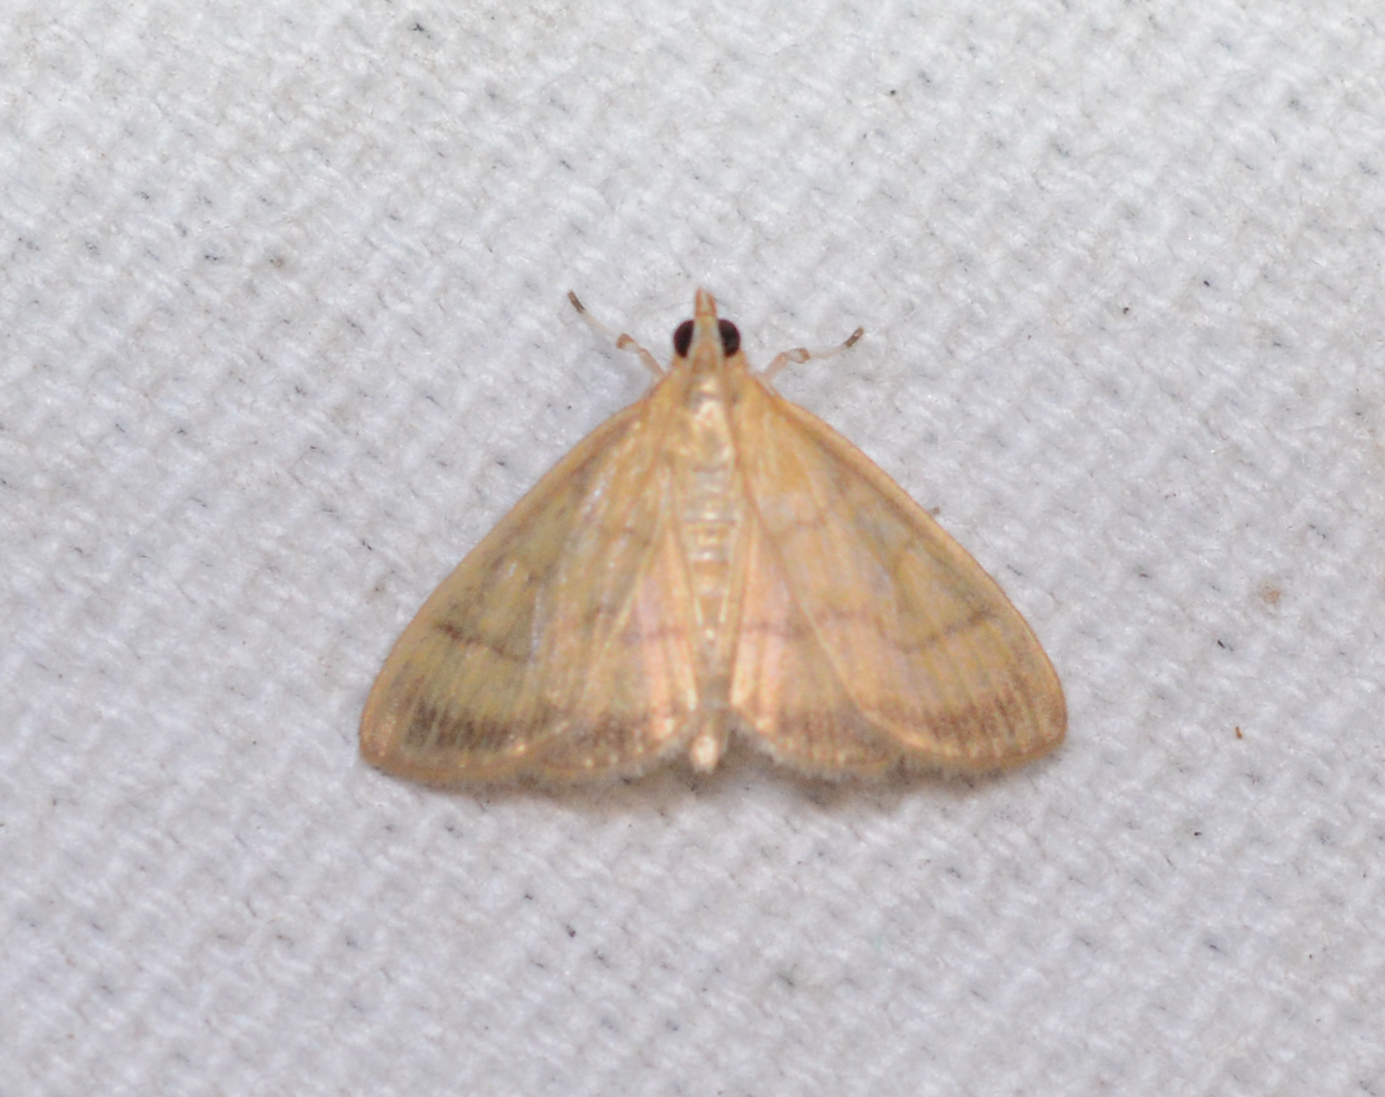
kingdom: Animalia
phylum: Arthropoda
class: Insecta
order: Lepidoptera
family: Crambidae
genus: Crocidophora
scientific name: Crocidophora tuberculalis
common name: Pale-winged crocidiphora moth
